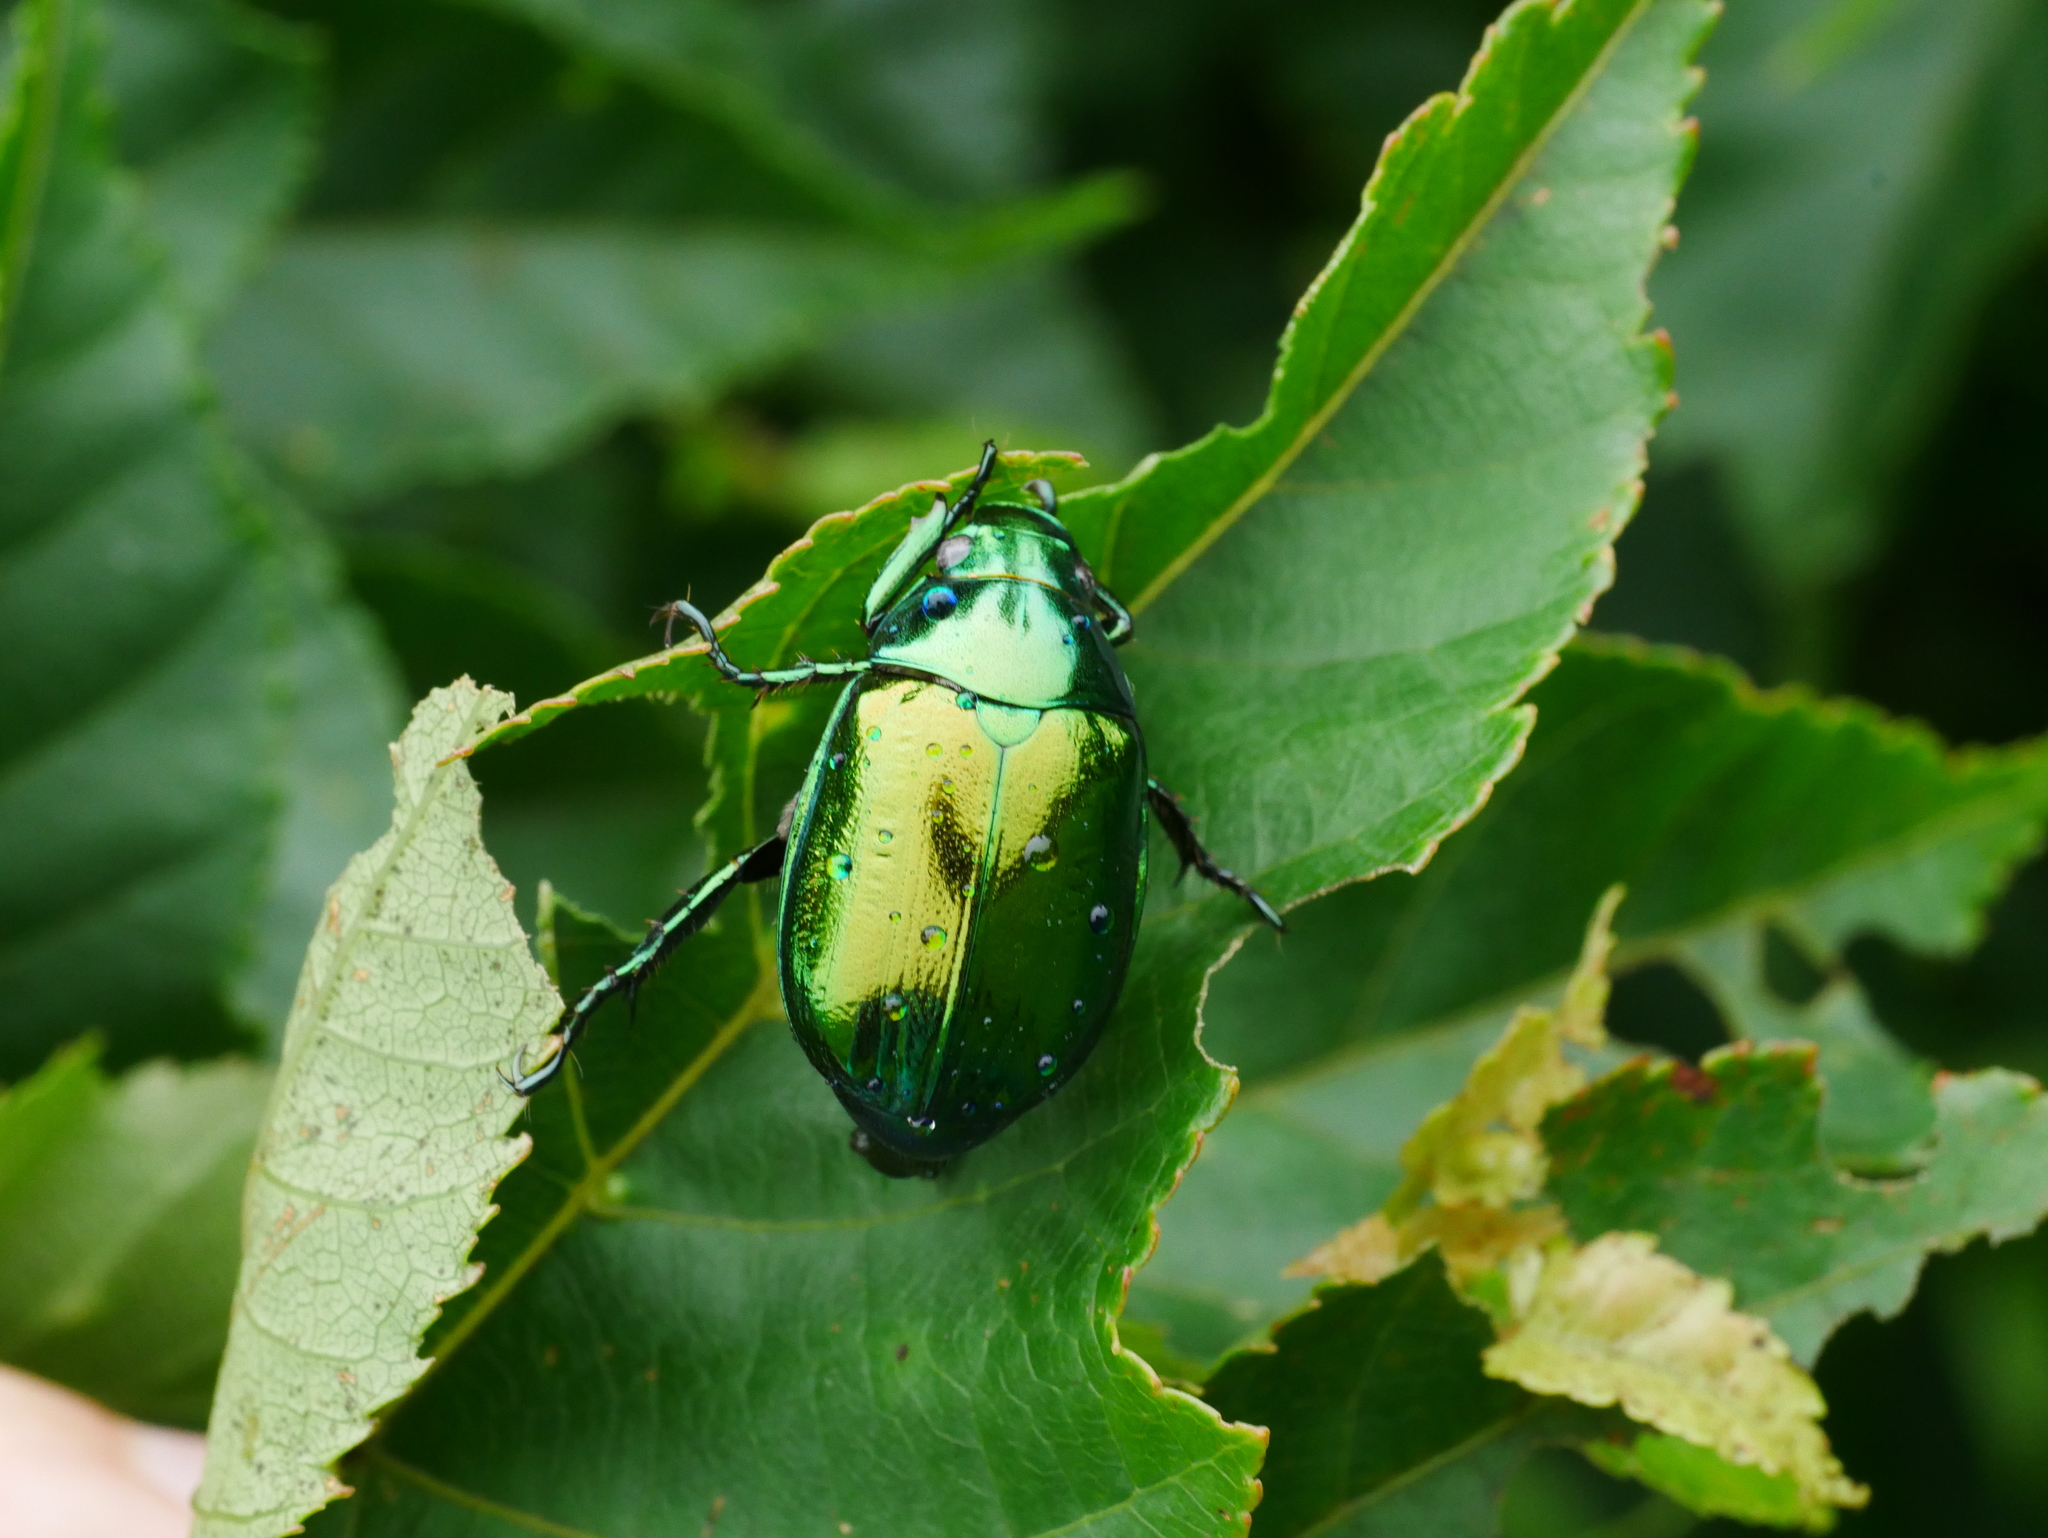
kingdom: Animalia
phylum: Arthropoda
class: Insecta
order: Coleoptera
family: Scarabaeidae
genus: Mimela
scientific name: Mimela splendens
